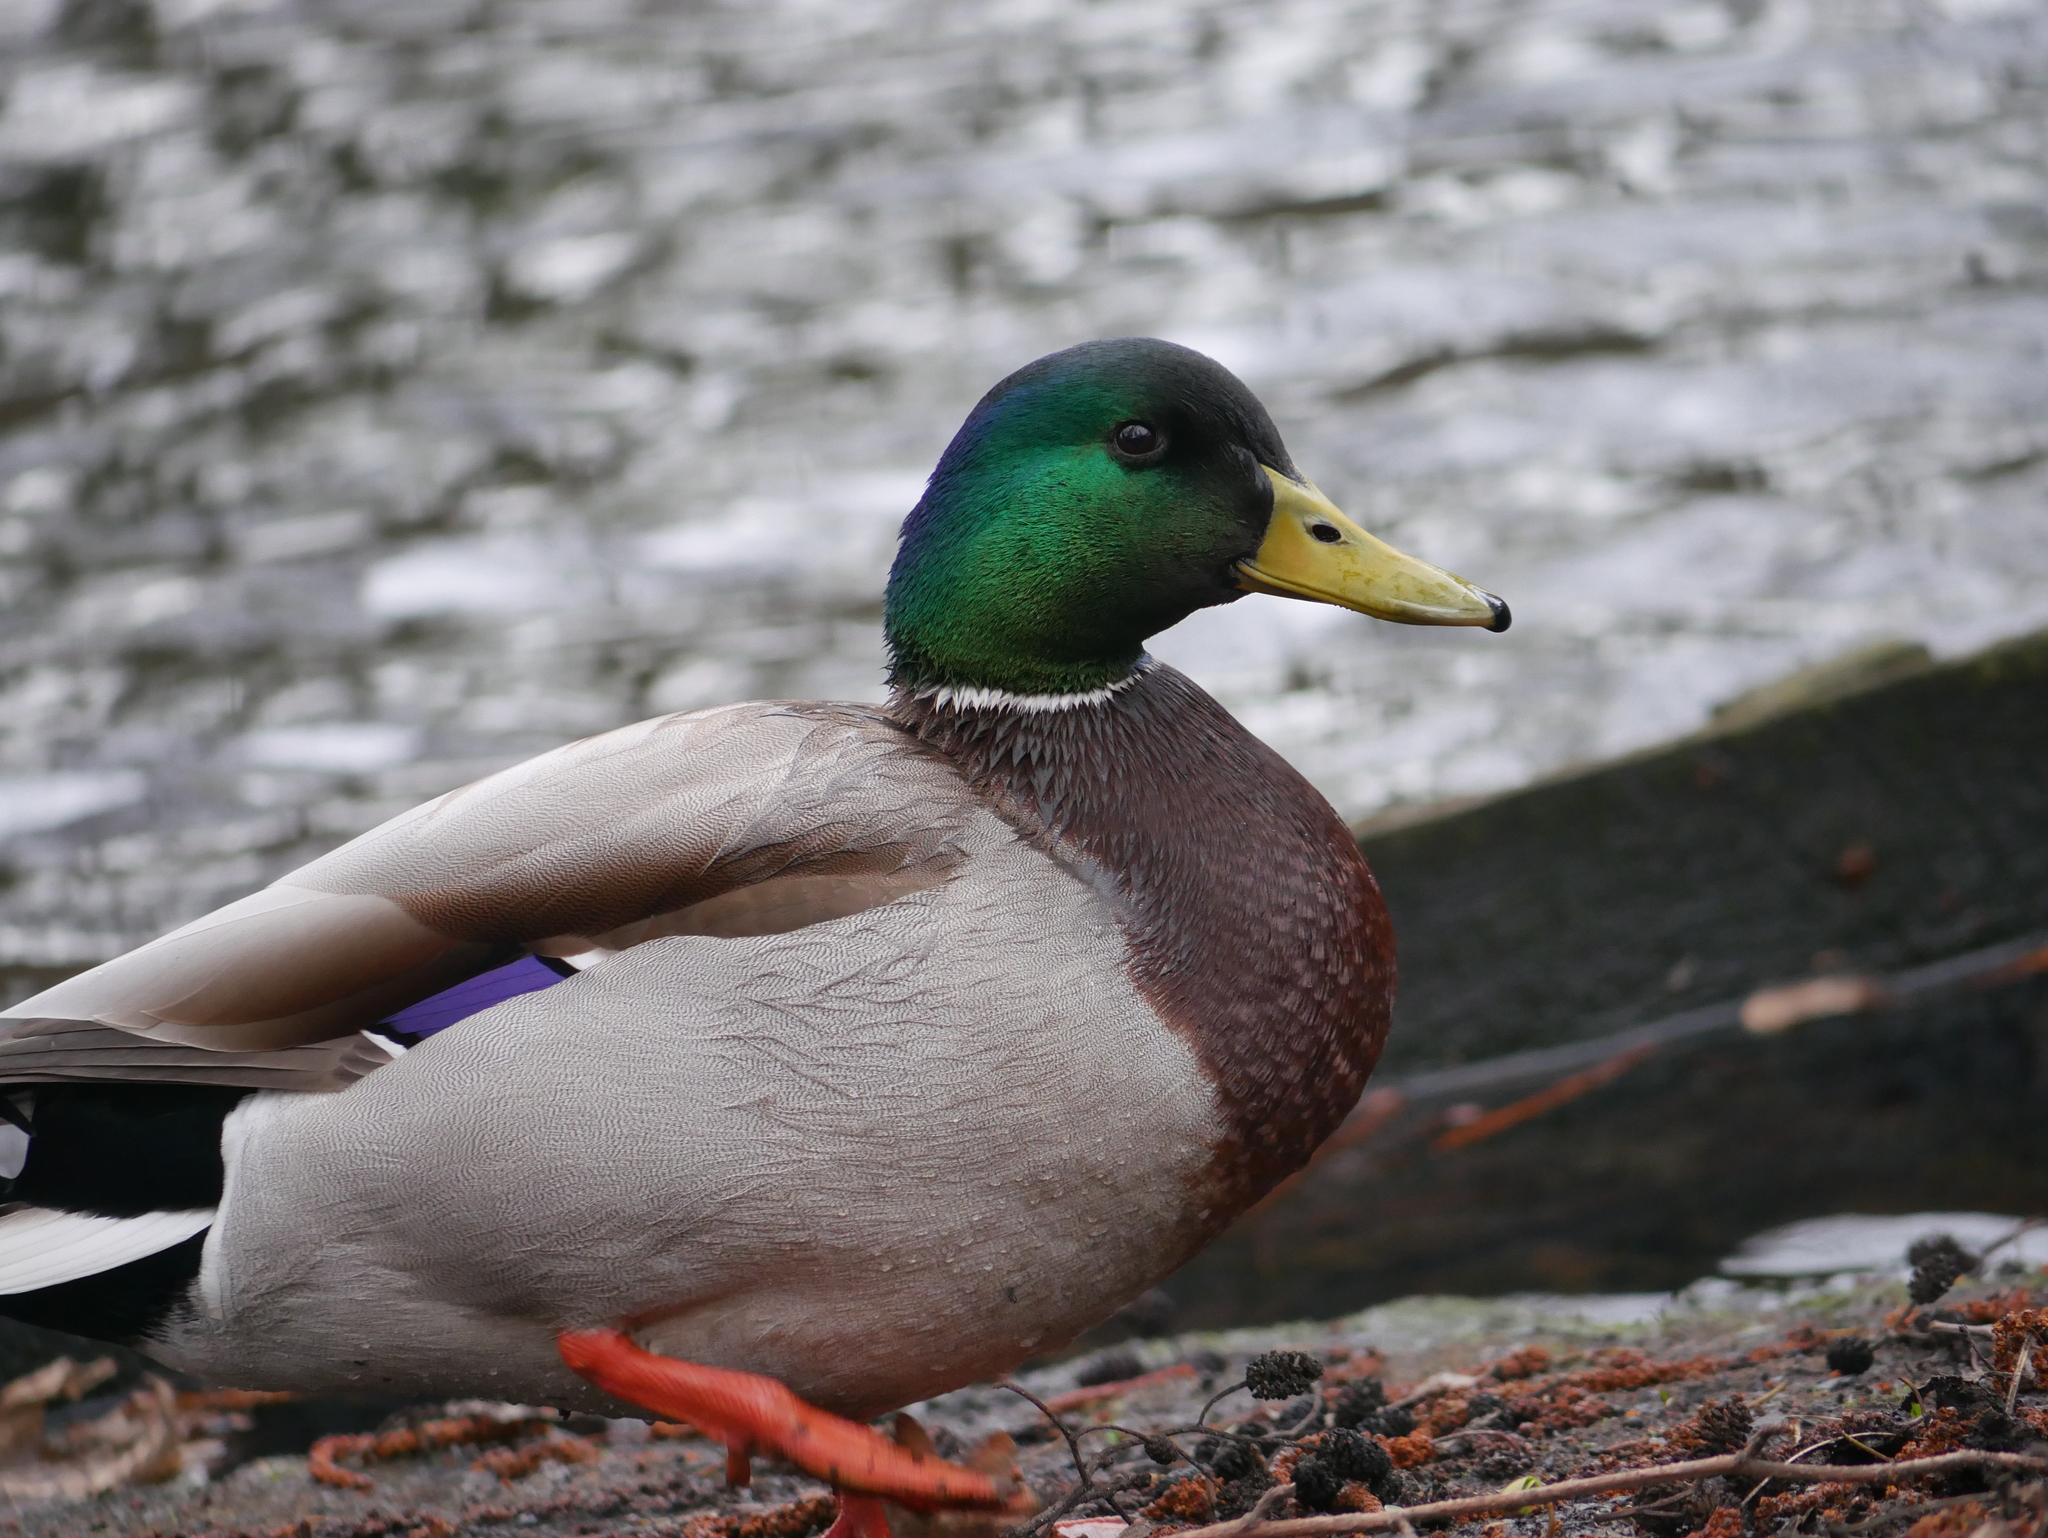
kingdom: Animalia
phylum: Chordata
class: Aves
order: Anseriformes
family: Anatidae
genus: Anas
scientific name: Anas platyrhynchos
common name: Mallard
